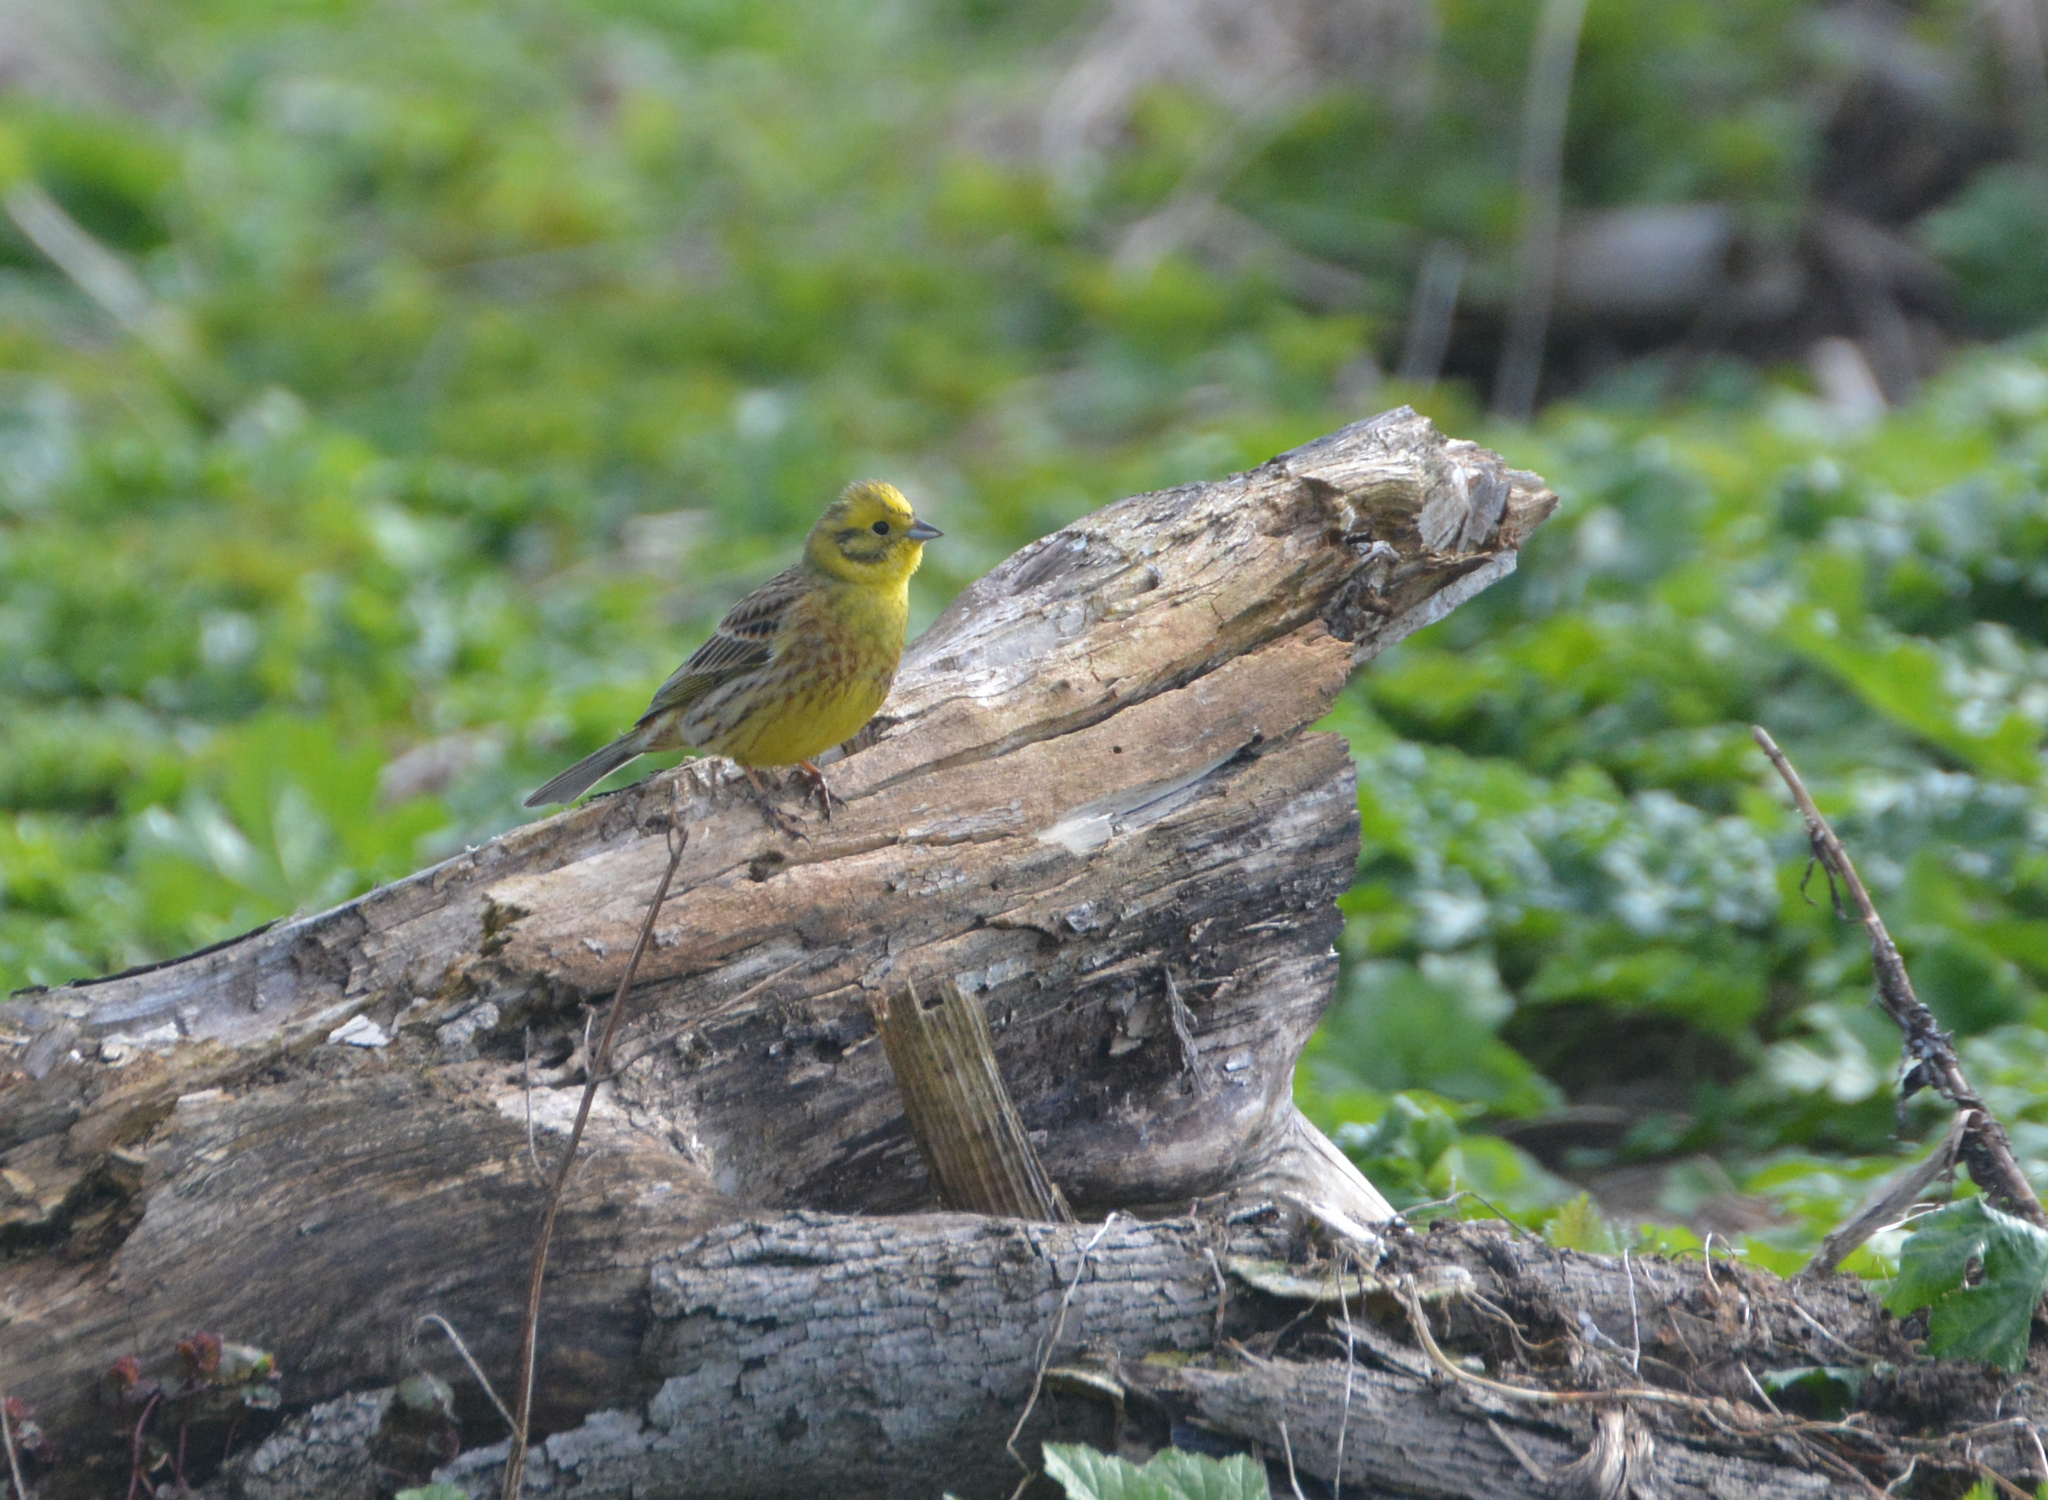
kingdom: Animalia
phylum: Chordata
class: Aves
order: Passeriformes
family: Emberizidae
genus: Emberiza
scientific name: Emberiza citrinella
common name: Yellowhammer
